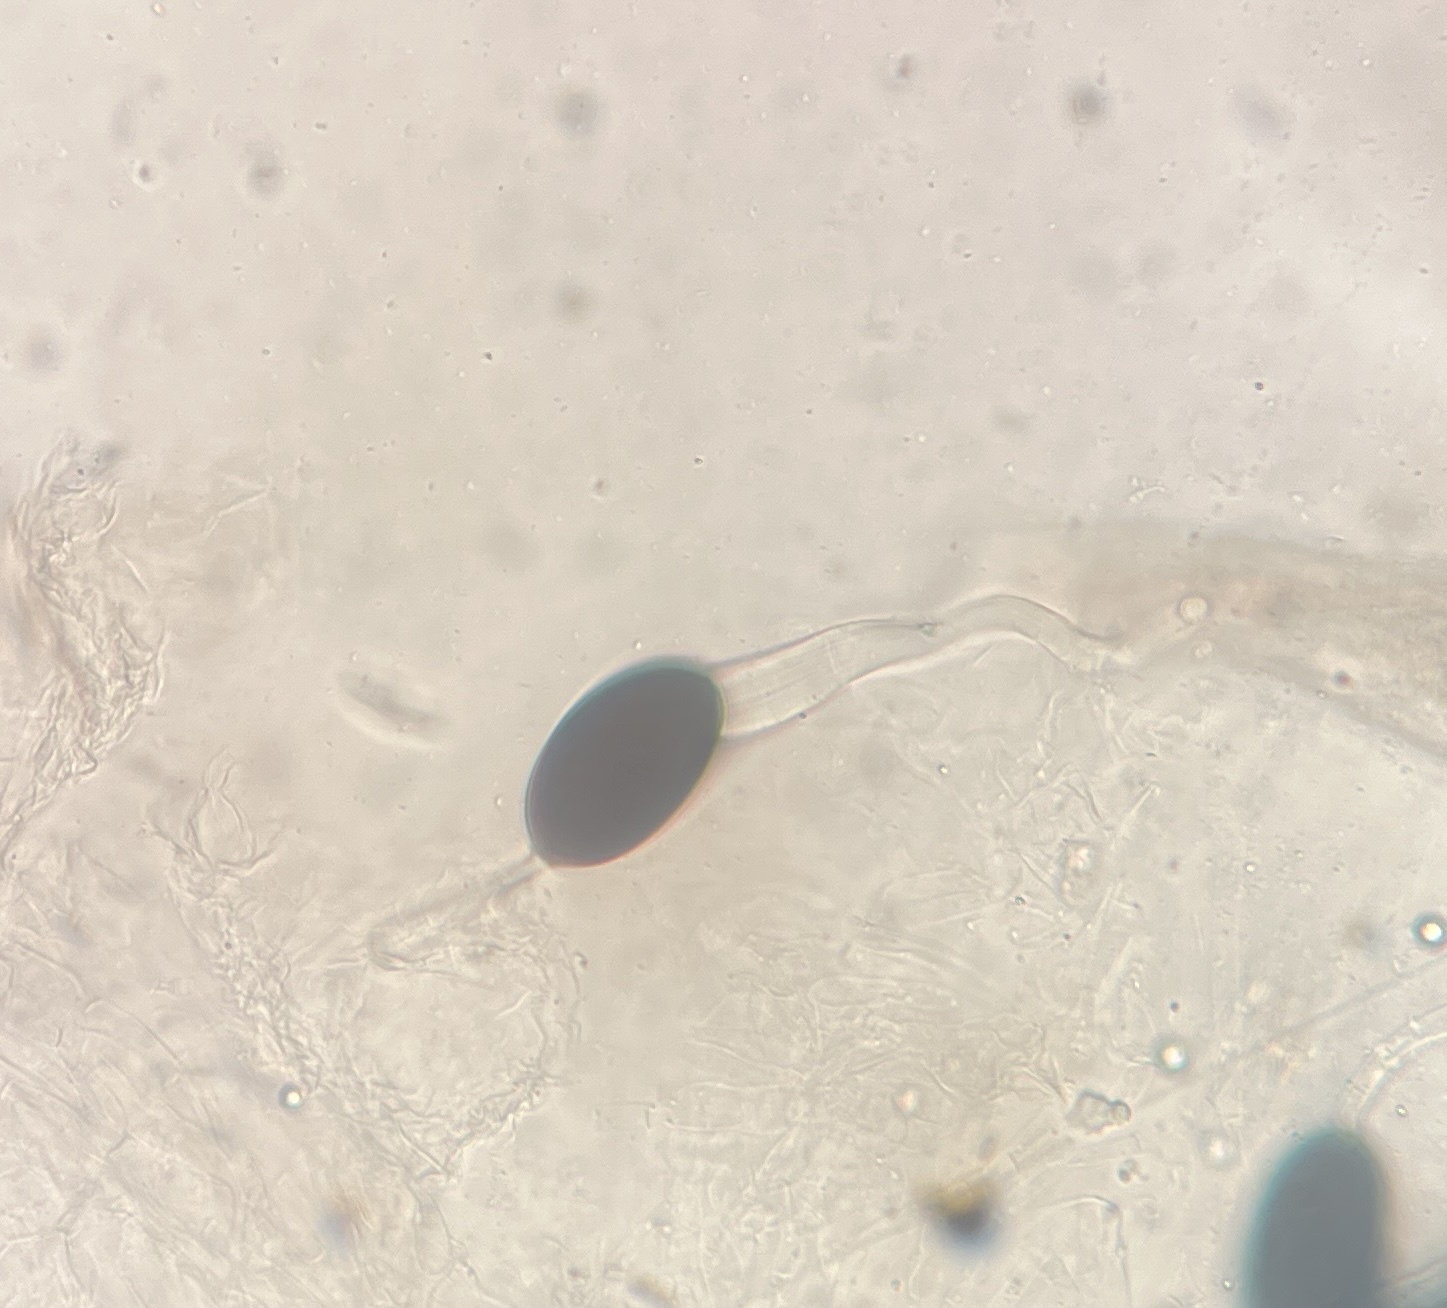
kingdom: Fungi
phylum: Ascomycota
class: Sordariomycetes
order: Sordariales
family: Podosporaceae
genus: Podospora
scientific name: Podospora fimiseda
